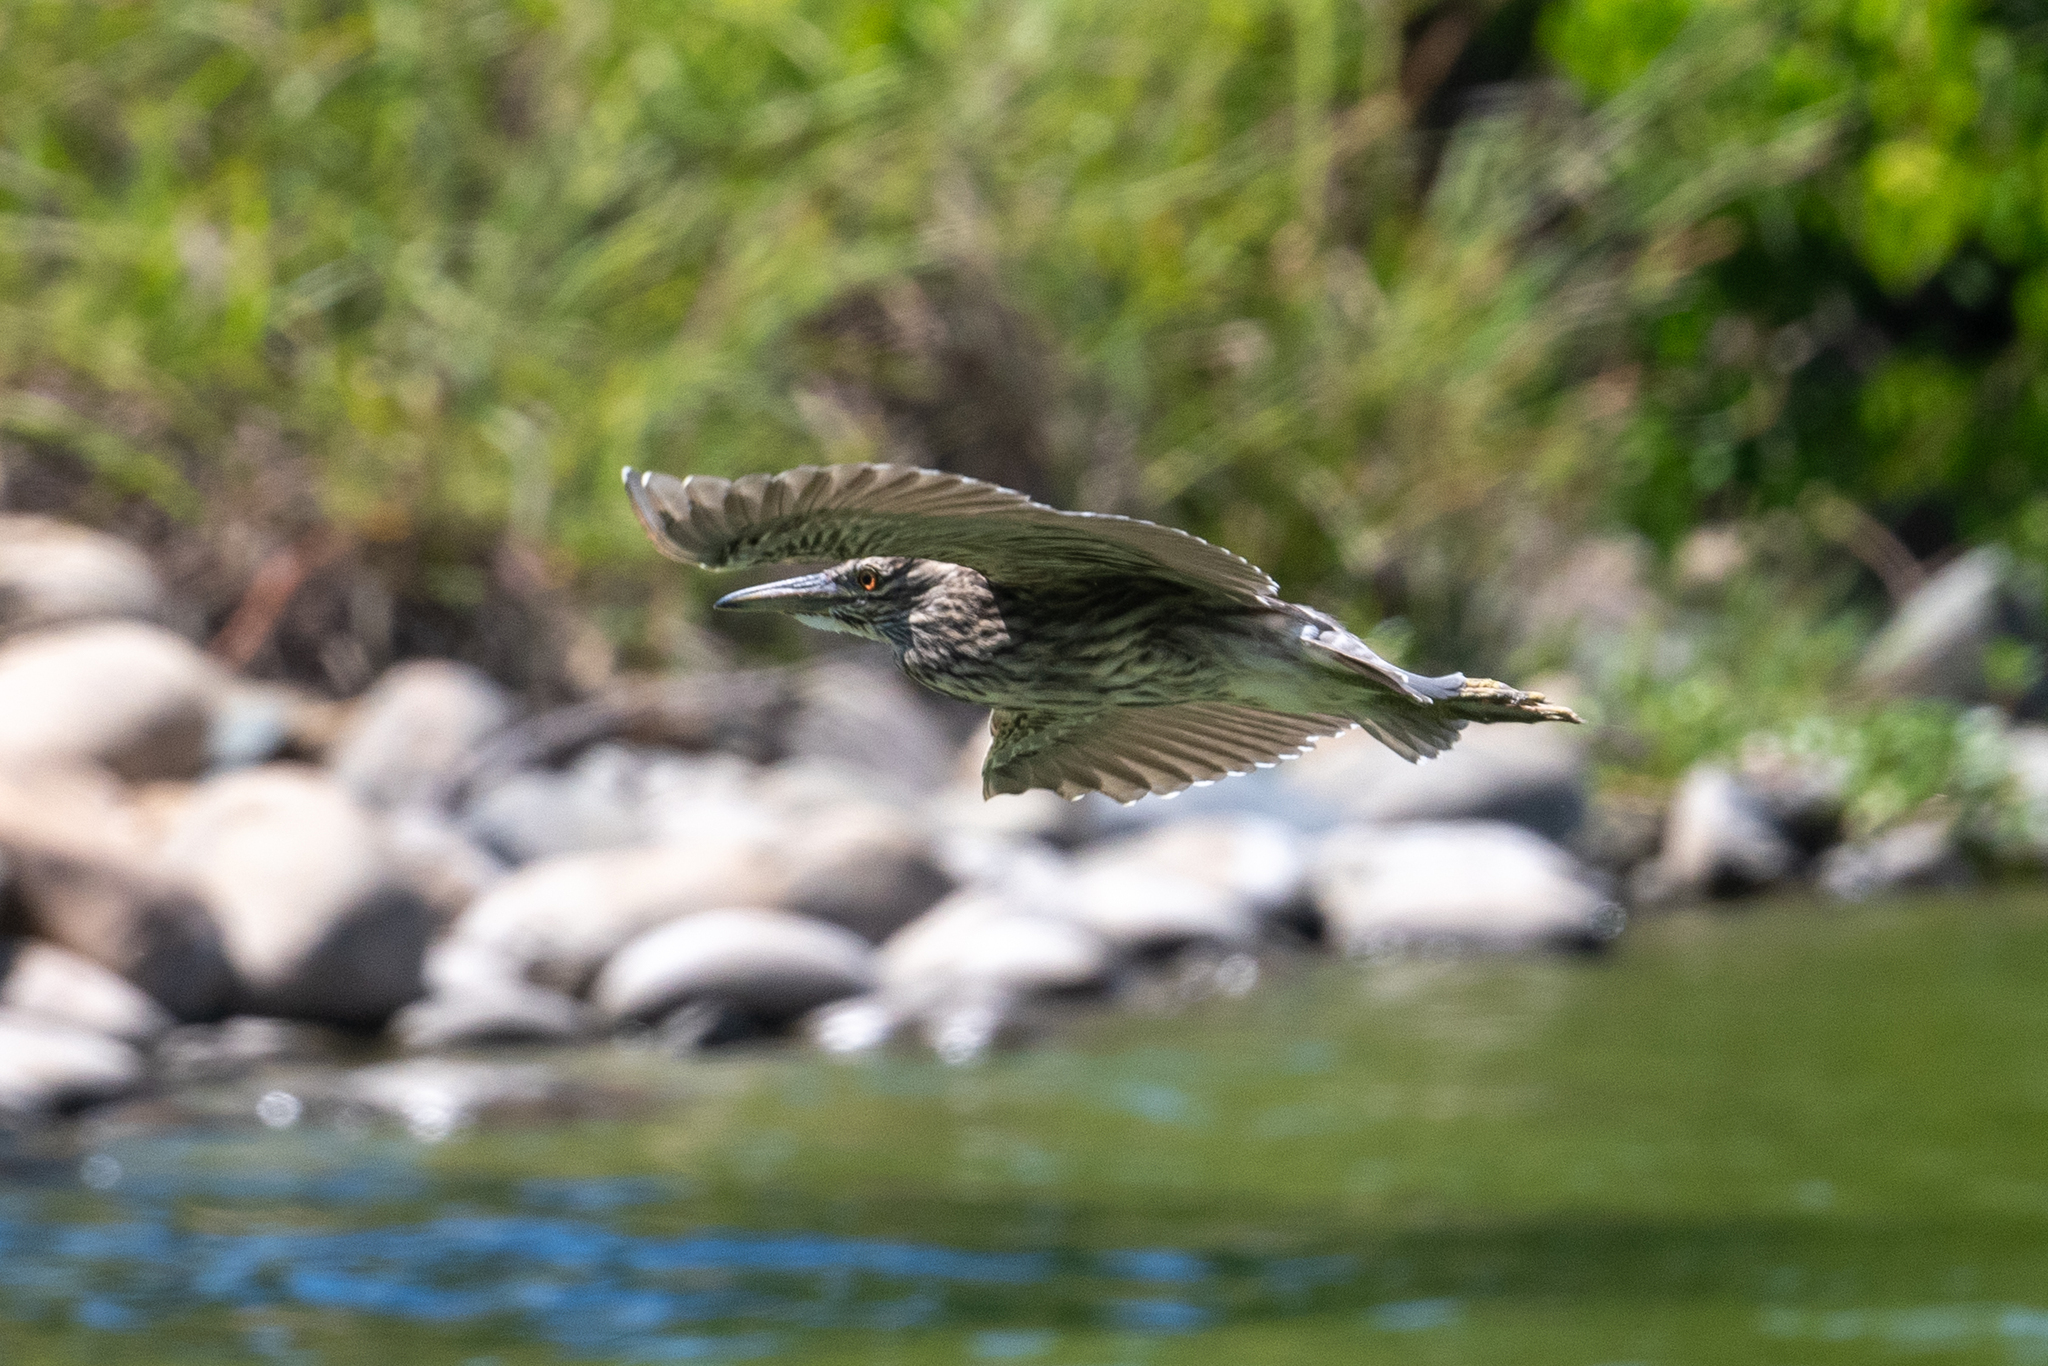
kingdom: Animalia
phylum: Chordata
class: Aves
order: Pelecaniformes
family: Ardeidae
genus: Nycticorax
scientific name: Nycticorax nycticorax
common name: Black-crowned night heron
